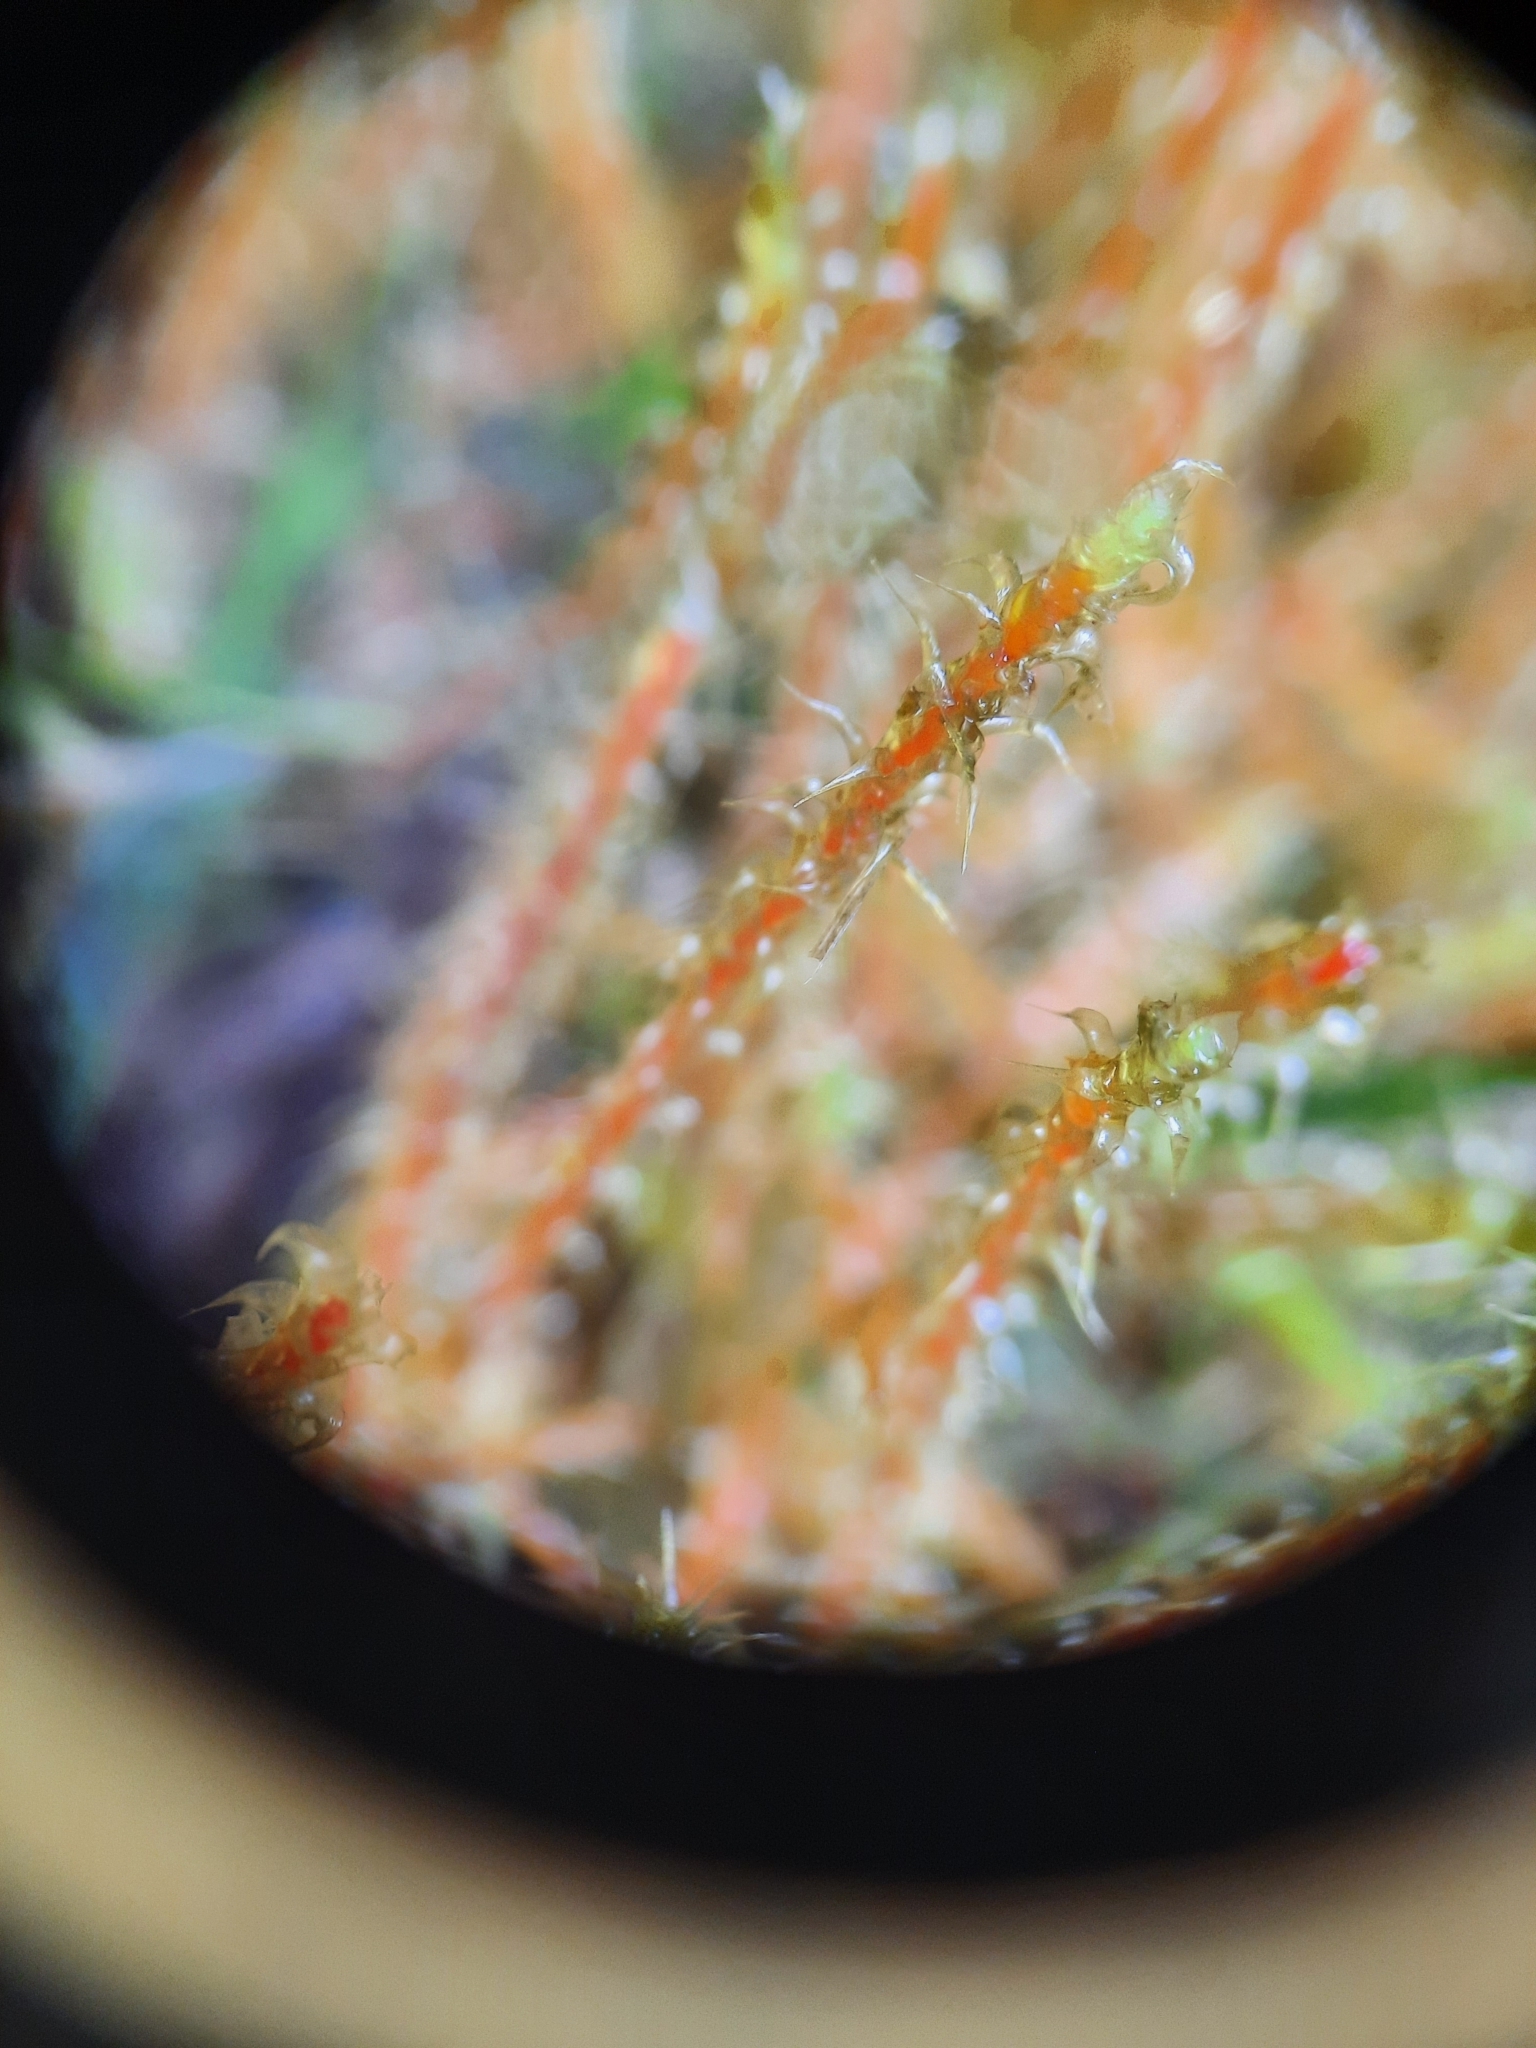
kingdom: Plantae
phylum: Bryophyta
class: Bryopsida
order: Hypnales
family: Hylocomiaceae
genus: Rhytidiadelphus
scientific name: Rhytidiadelphus squarrosus
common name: Springy turf-moss
